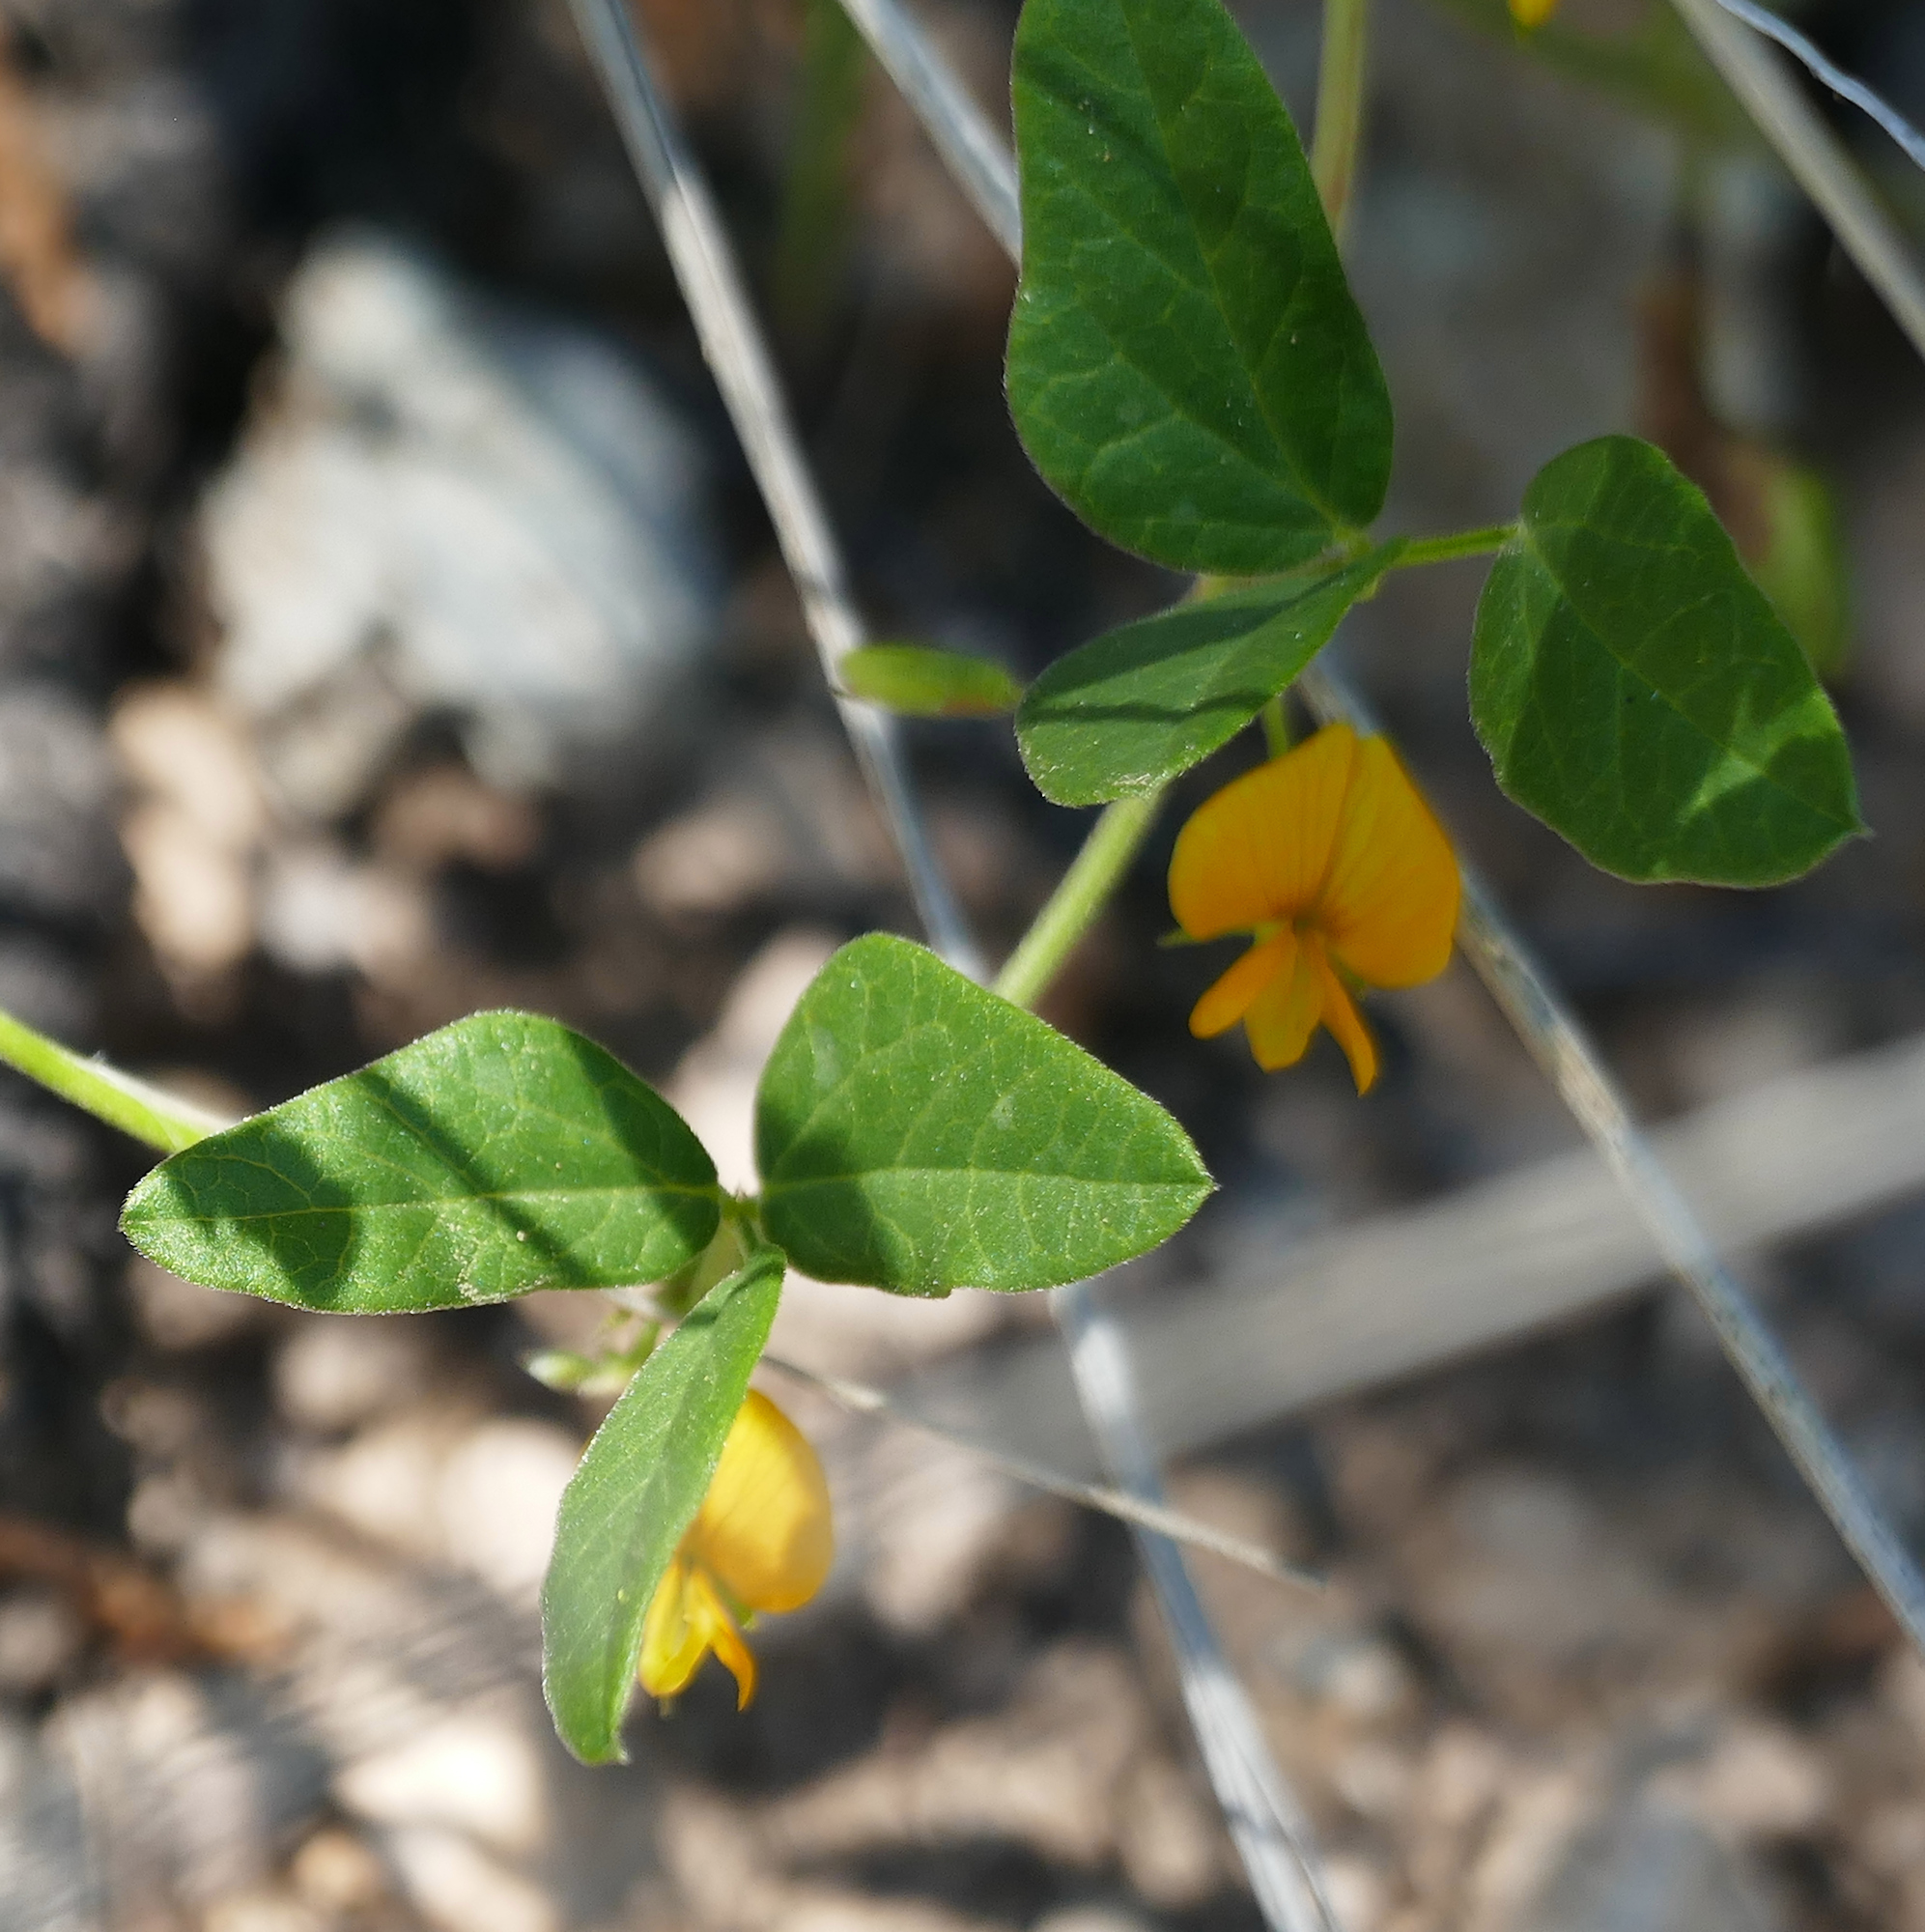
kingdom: Plantae
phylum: Tracheophyta
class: Magnoliopsida
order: Fabales
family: Fabaceae
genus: Rhynchosia
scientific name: Rhynchosia senna
